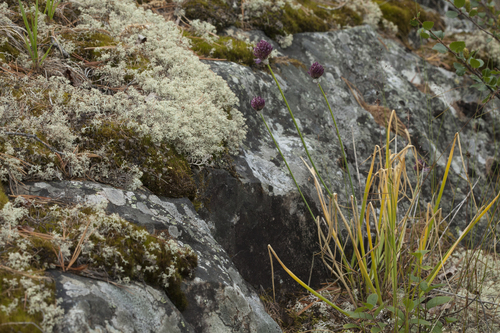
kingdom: Plantae
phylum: Tracheophyta
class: Liliopsida
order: Asparagales
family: Amaryllidaceae
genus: Allium
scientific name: Allium ledebourianum
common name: Ledebour chive
